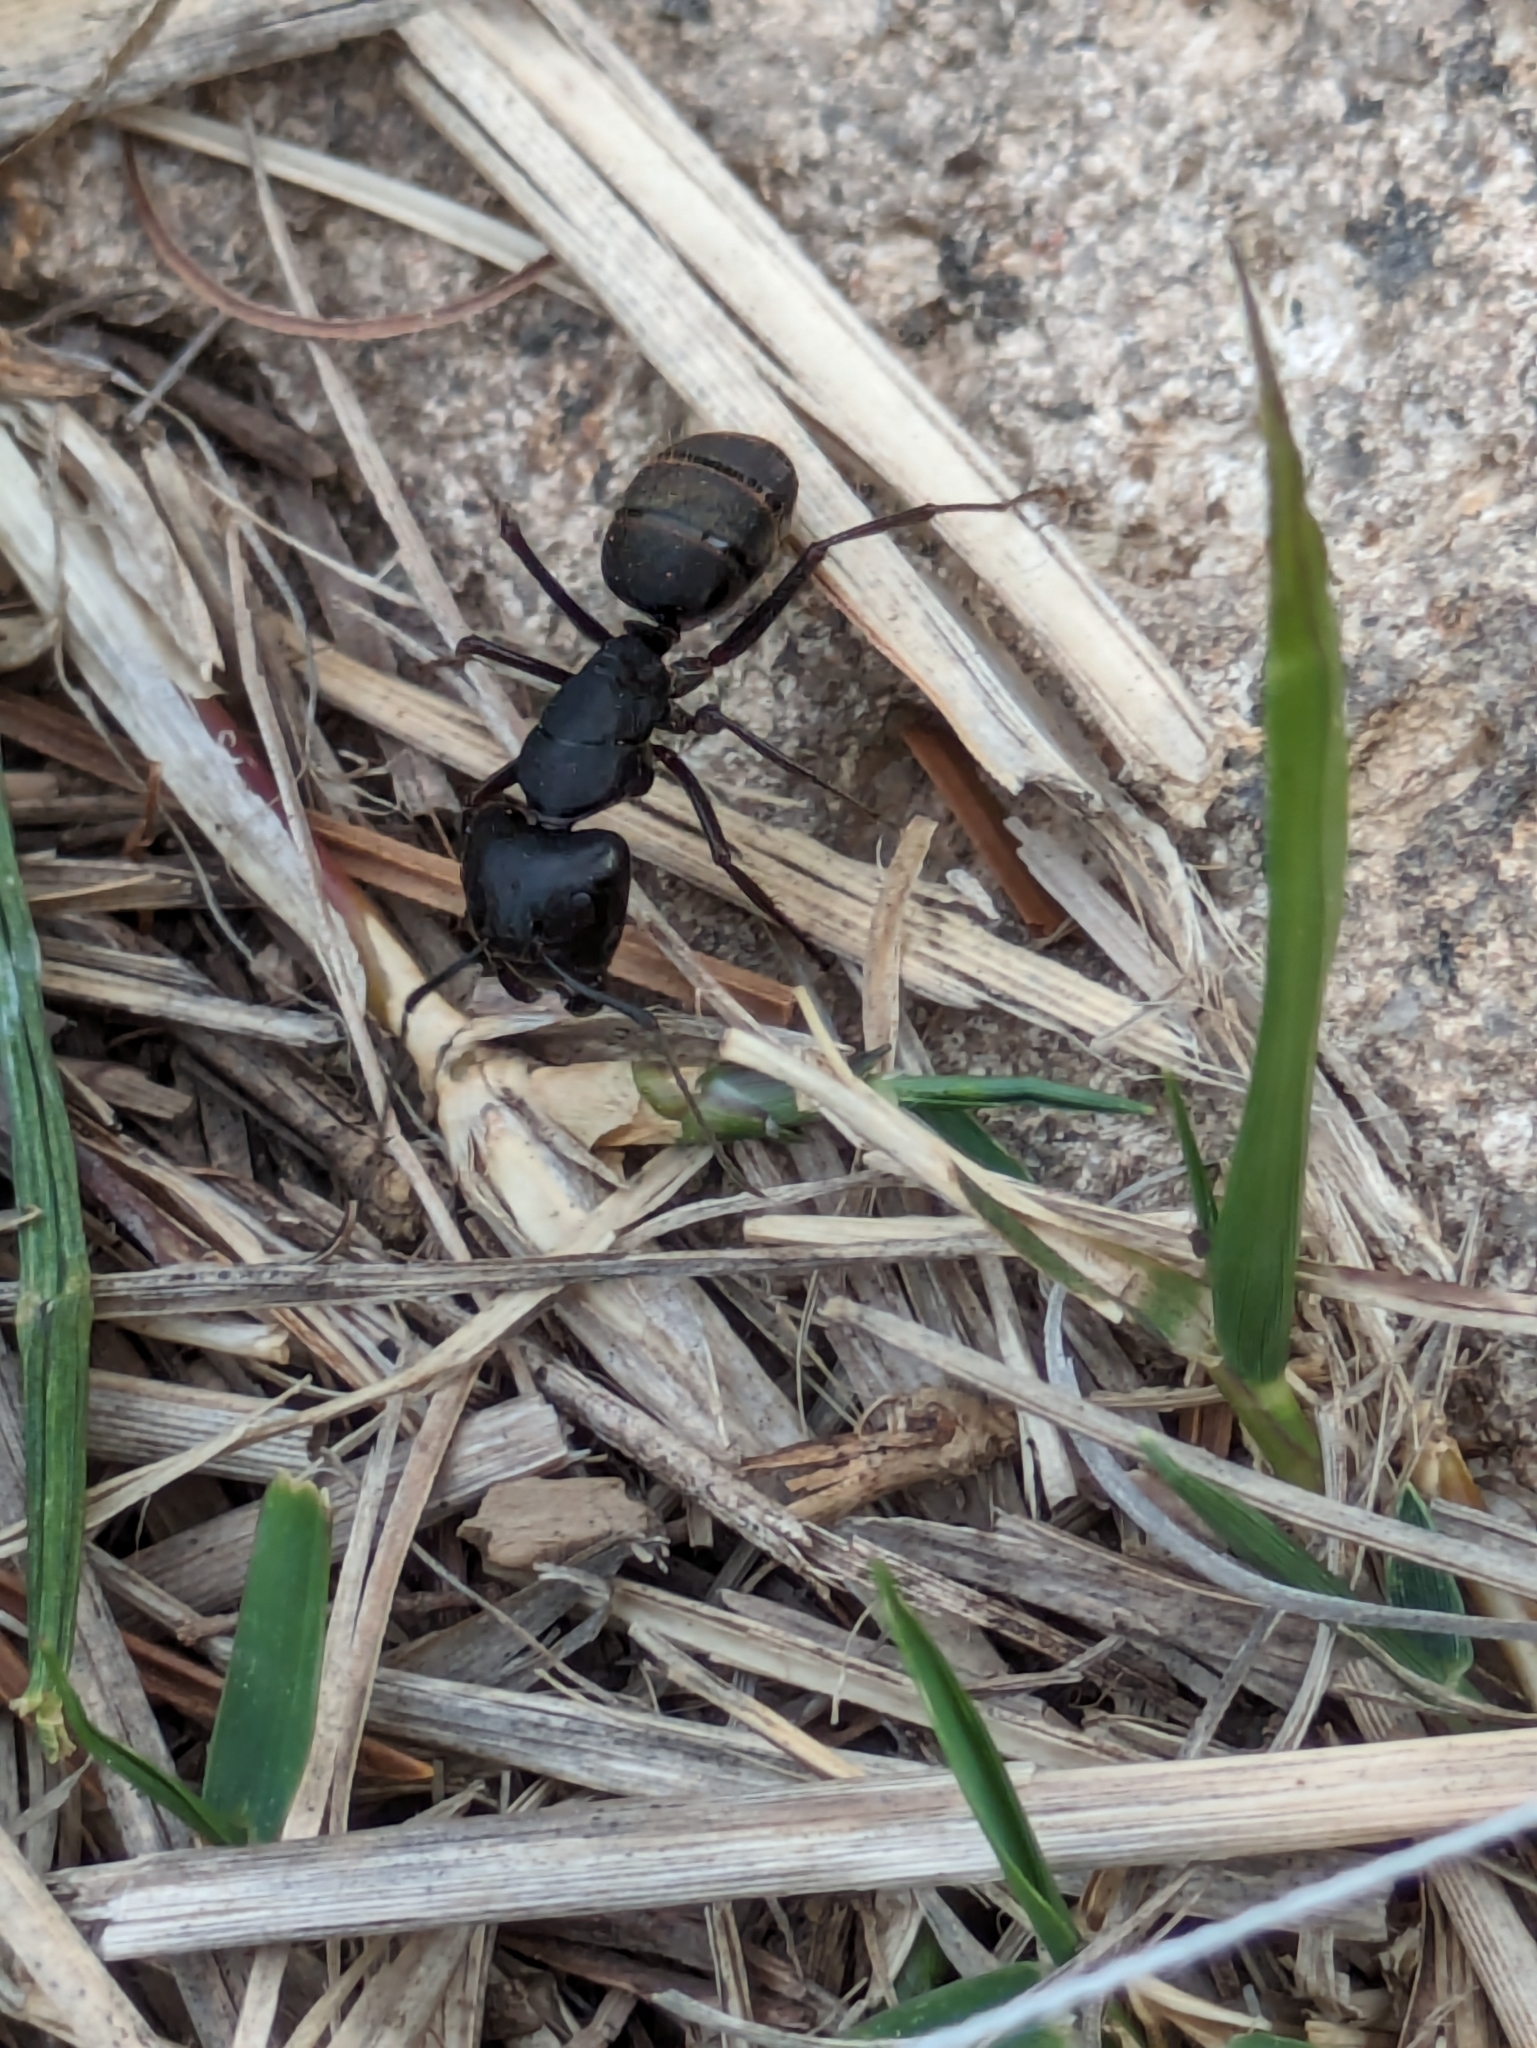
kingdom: Animalia
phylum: Arthropoda
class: Insecta
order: Hymenoptera
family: Formicidae
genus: Camponotus
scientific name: Camponotus japonicus
